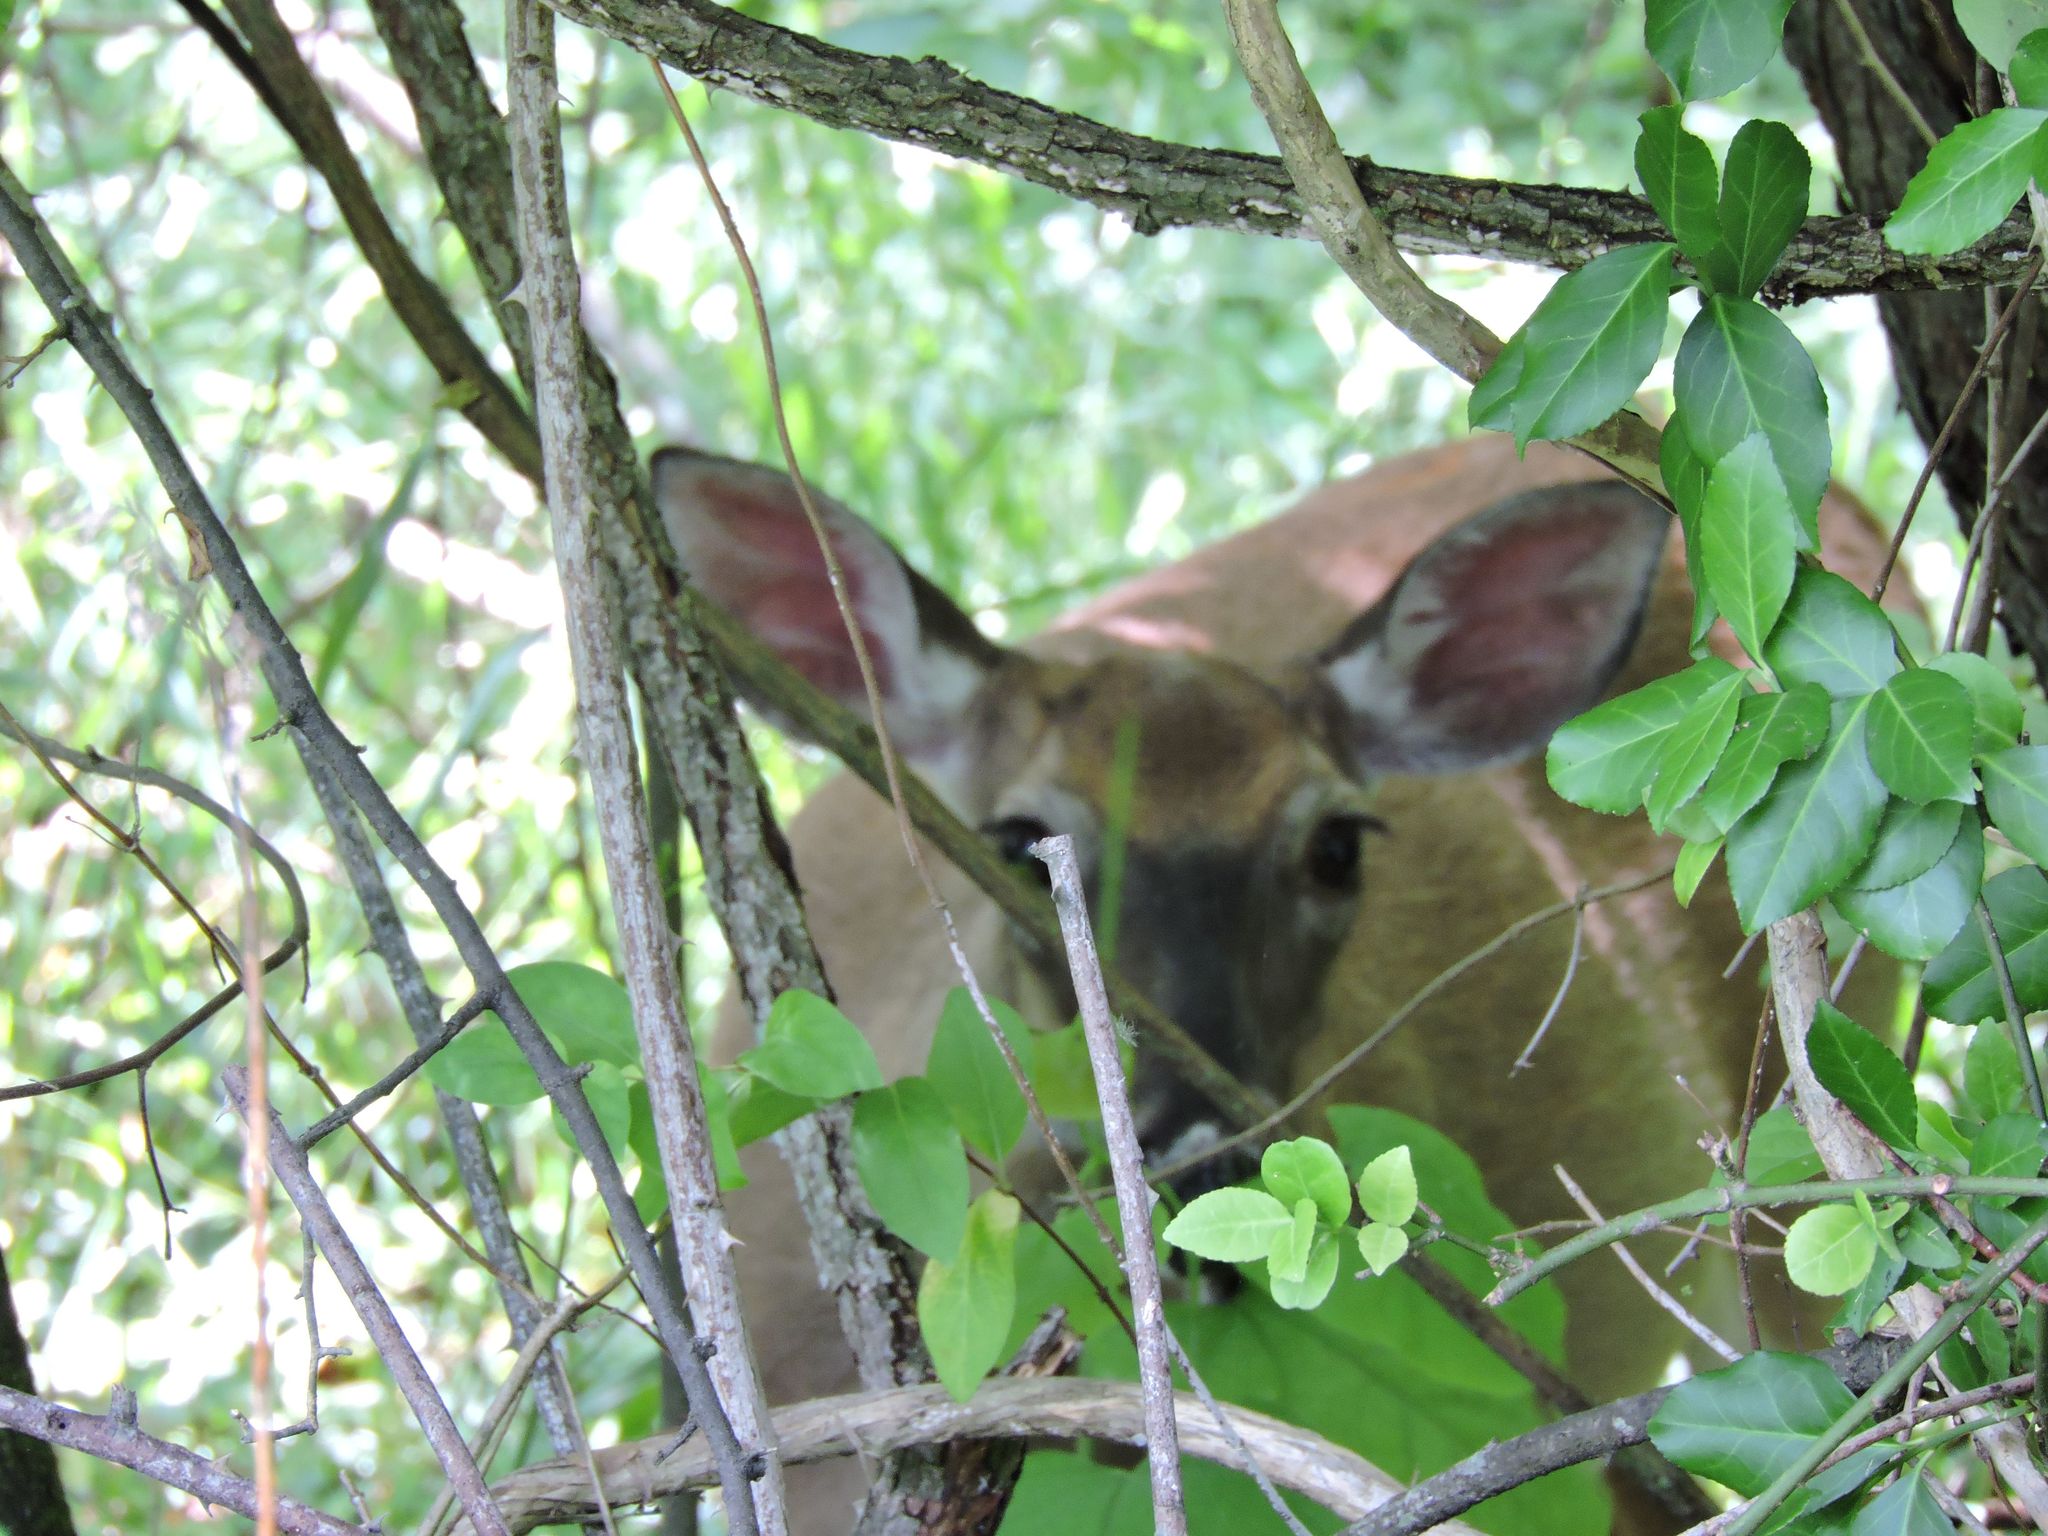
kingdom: Animalia
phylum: Chordata
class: Mammalia
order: Artiodactyla
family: Cervidae
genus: Odocoileus
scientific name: Odocoileus virginianus
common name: White-tailed deer
